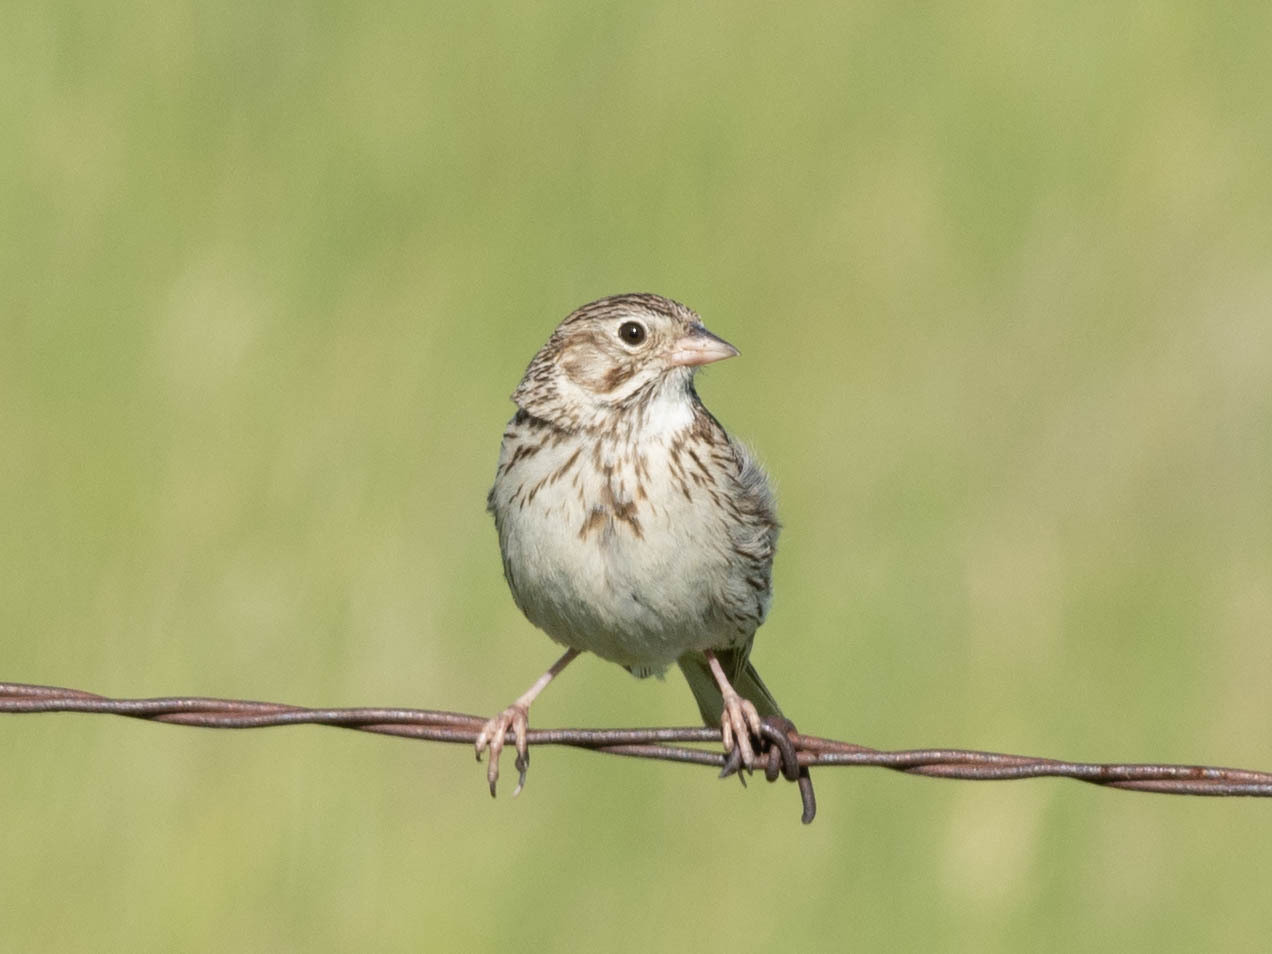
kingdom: Animalia
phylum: Chordata
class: Aves
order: Passeriformes
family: Passerellidae
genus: Pooecetes
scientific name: Pooecetes gramineus
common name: Vesper sparrow
